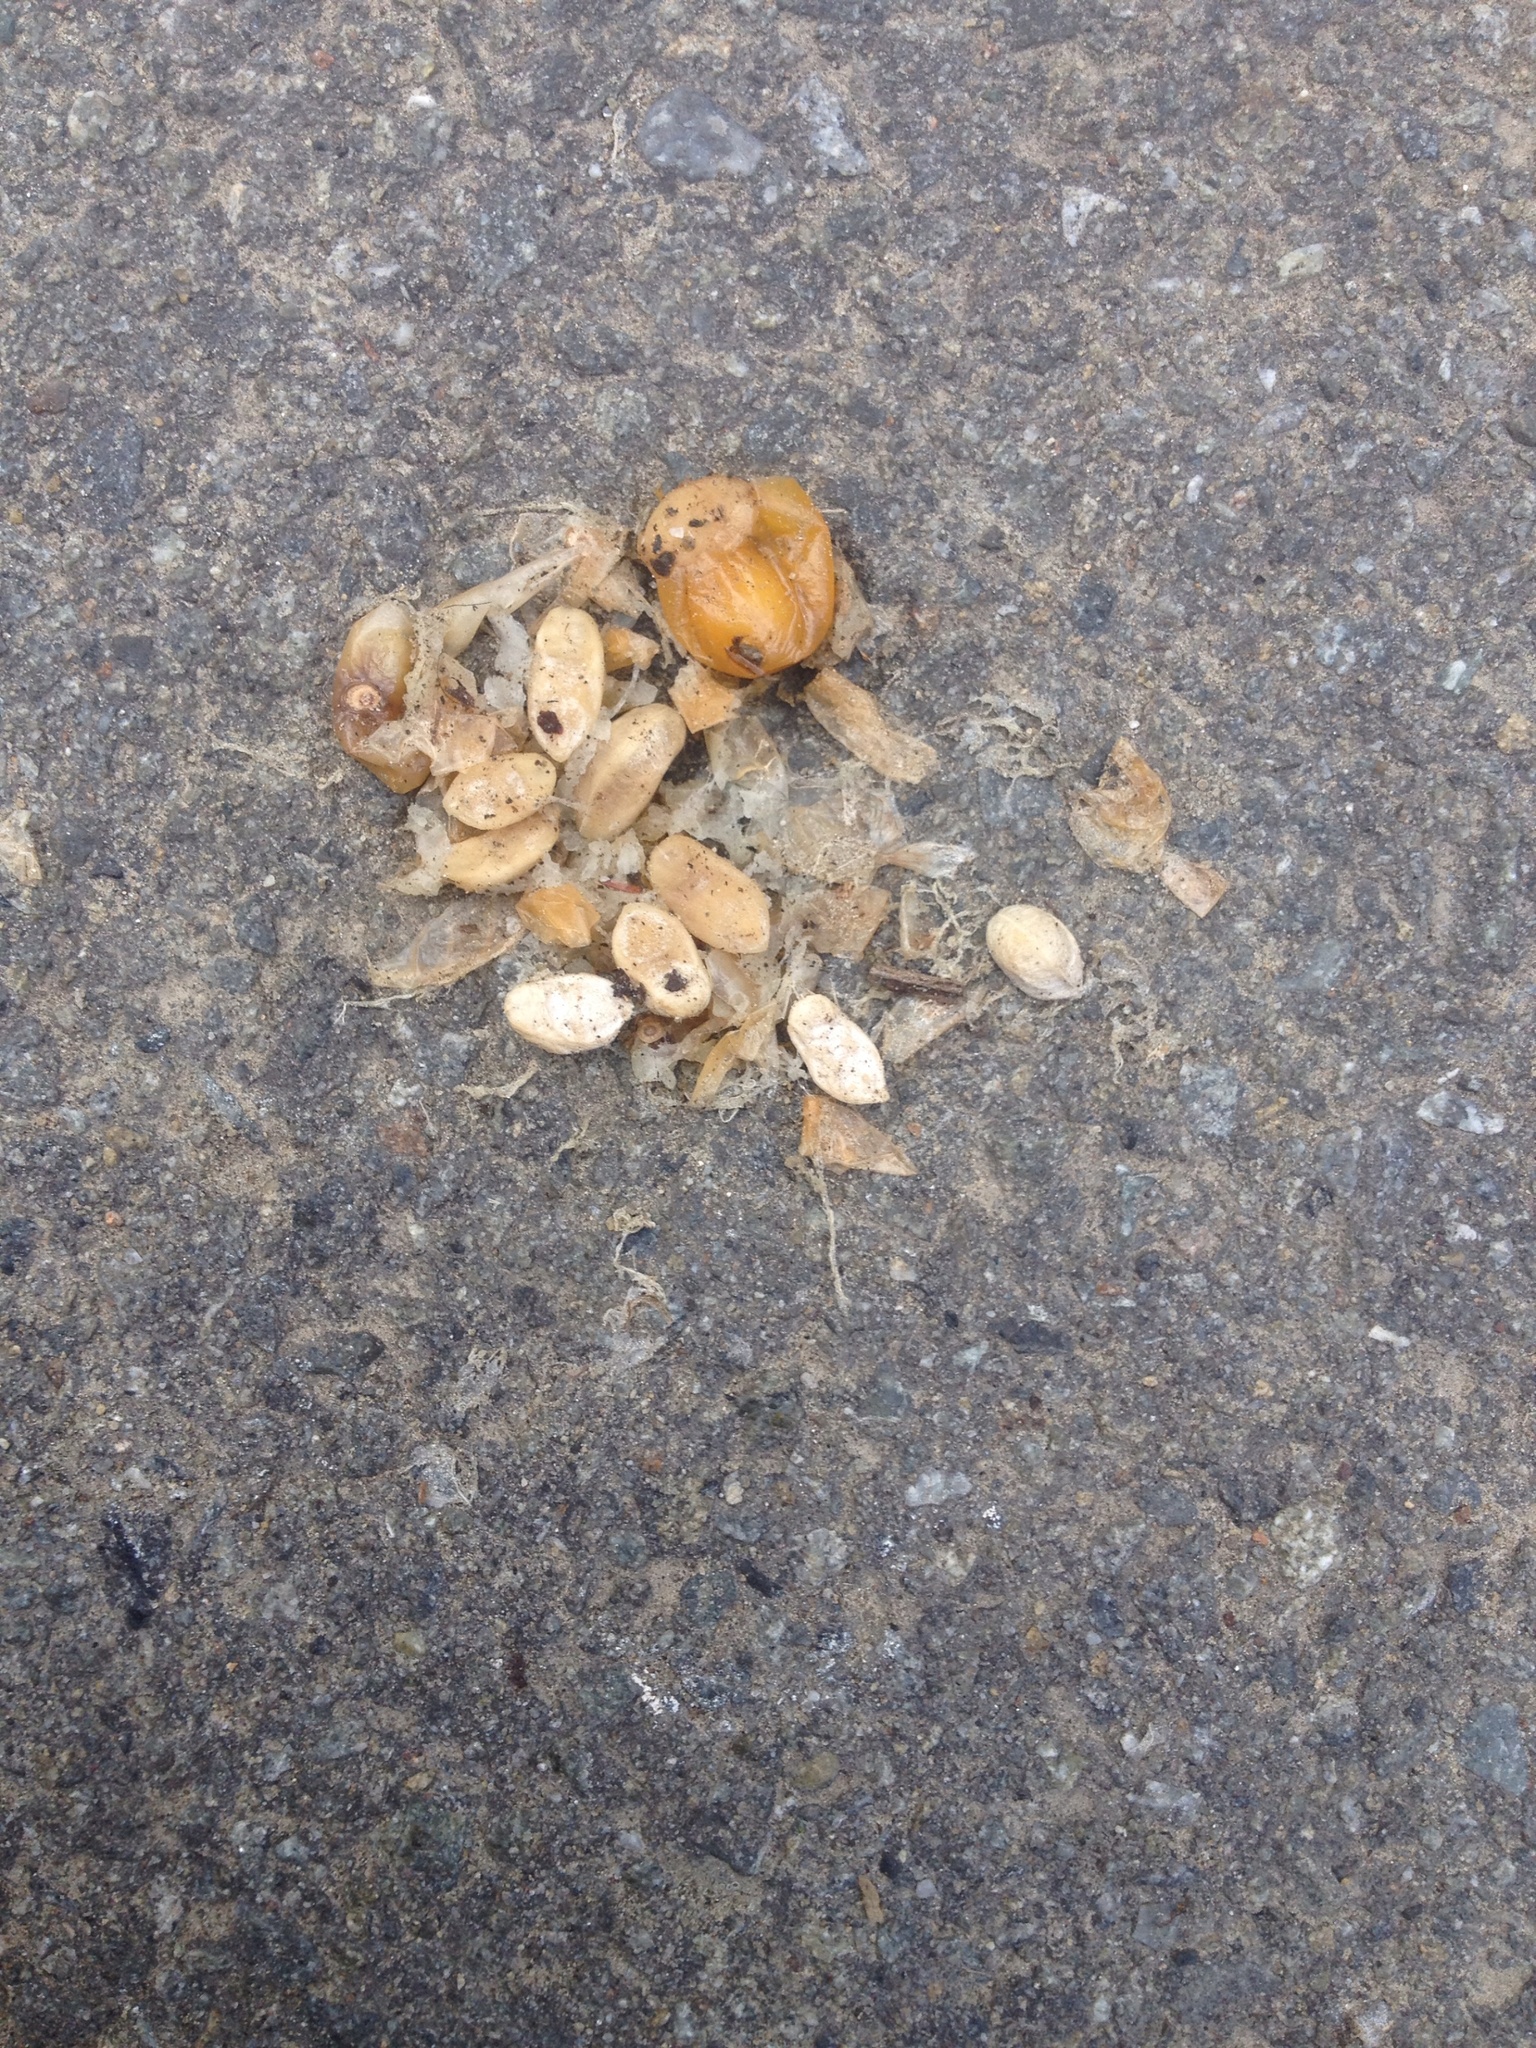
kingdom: Animalia
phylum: Chordata
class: Aves
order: Columbiformes
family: Columbidae
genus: Hemiphaga
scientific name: Hemiphaga novaeseelandiae
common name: New zealand pigeon
